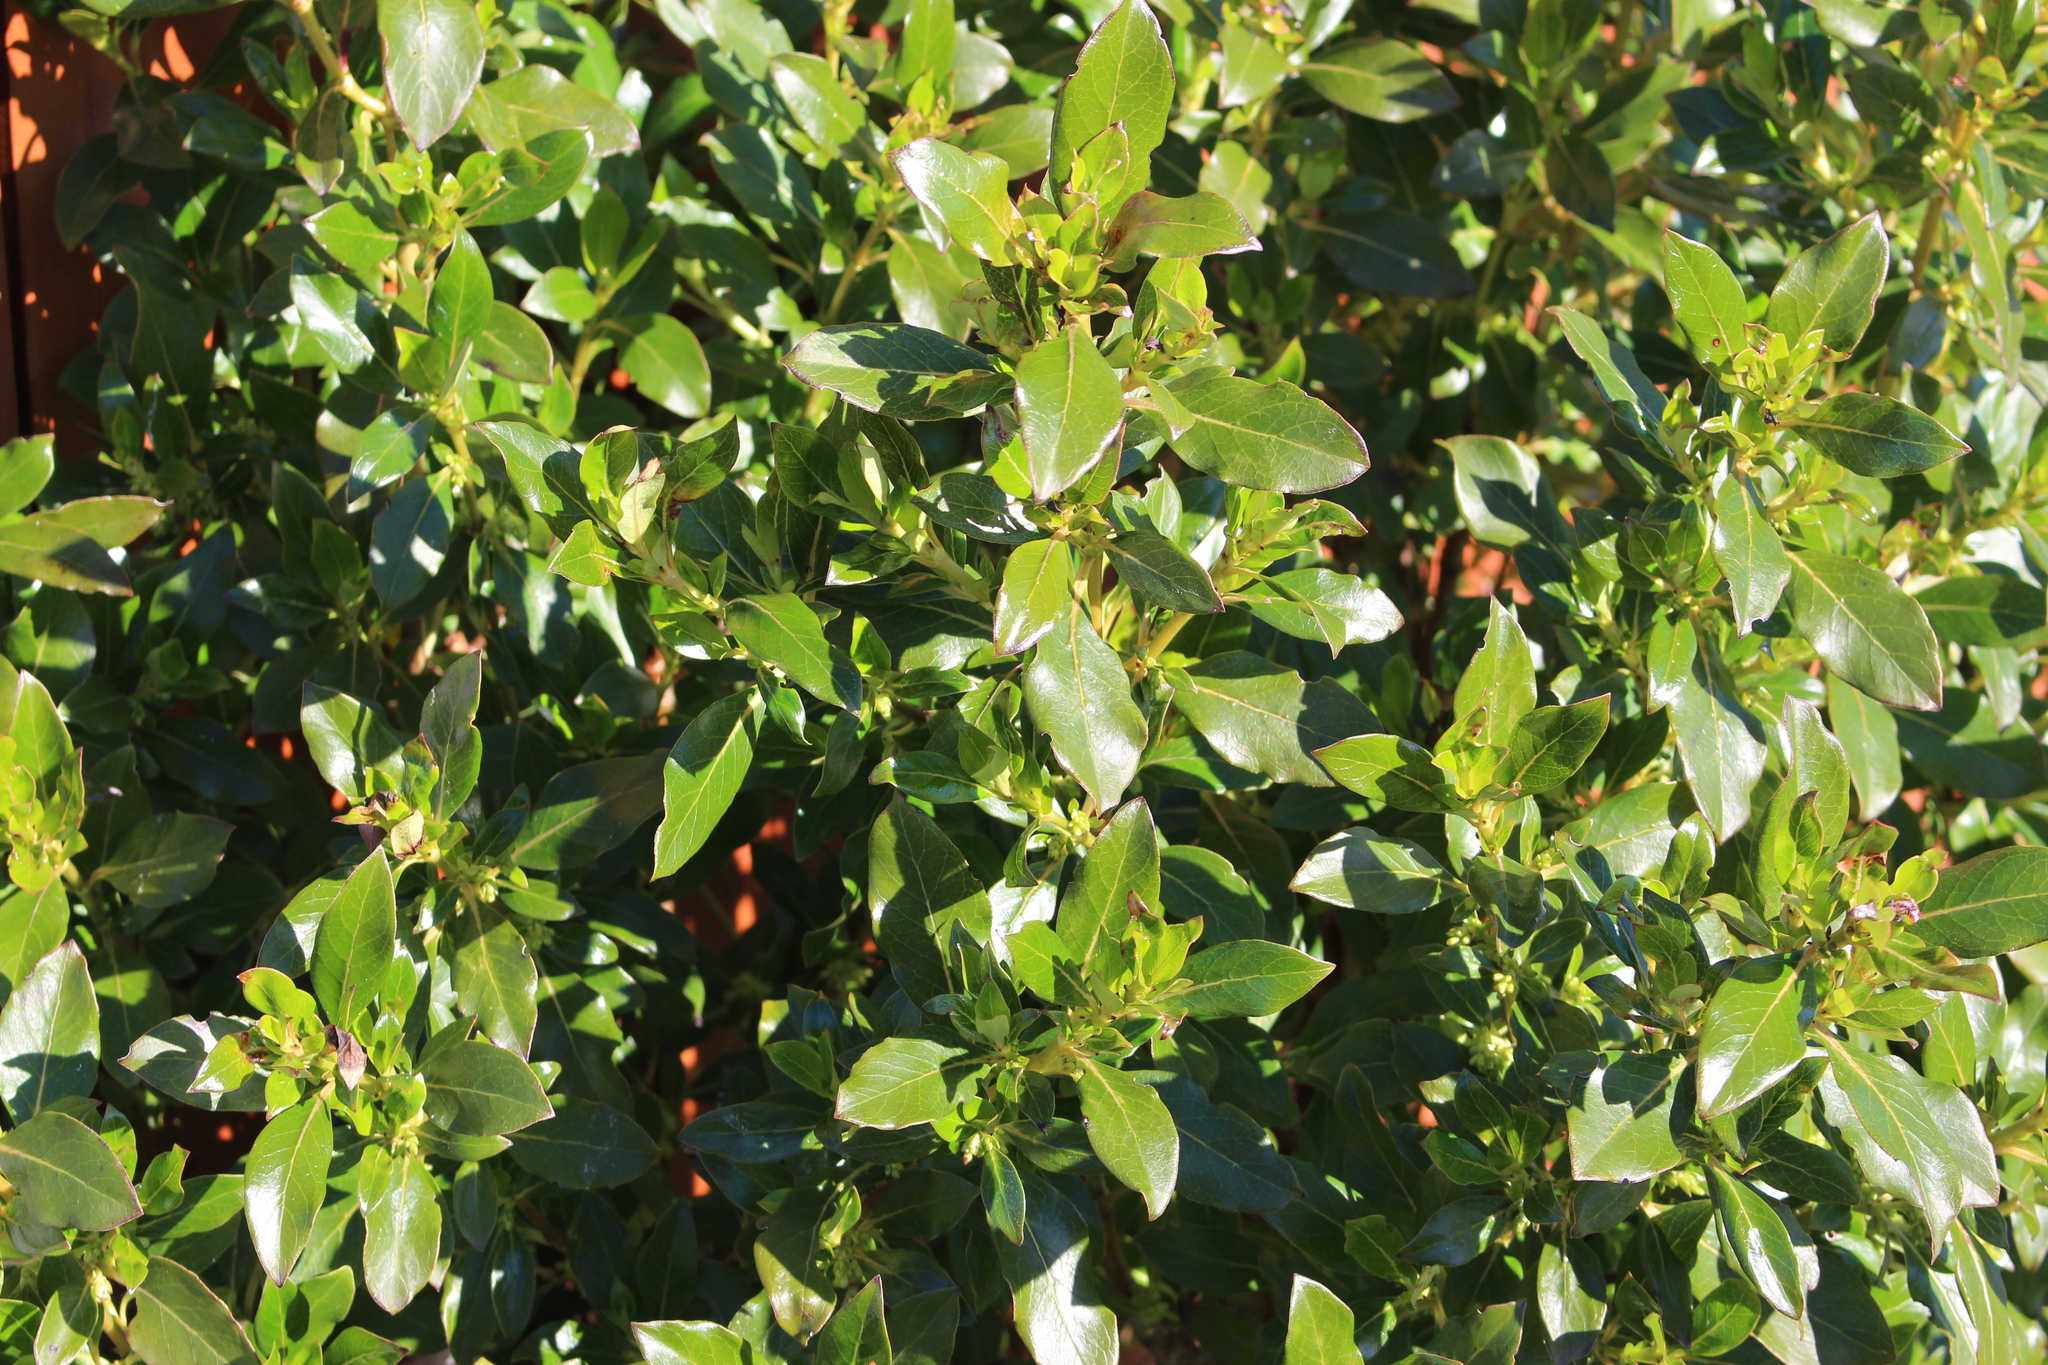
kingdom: Plantae
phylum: Tracheophyta
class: Magnoliopsida
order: Gentianales
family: Rubiaceae
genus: Coprosma
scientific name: Coprosma robusta
